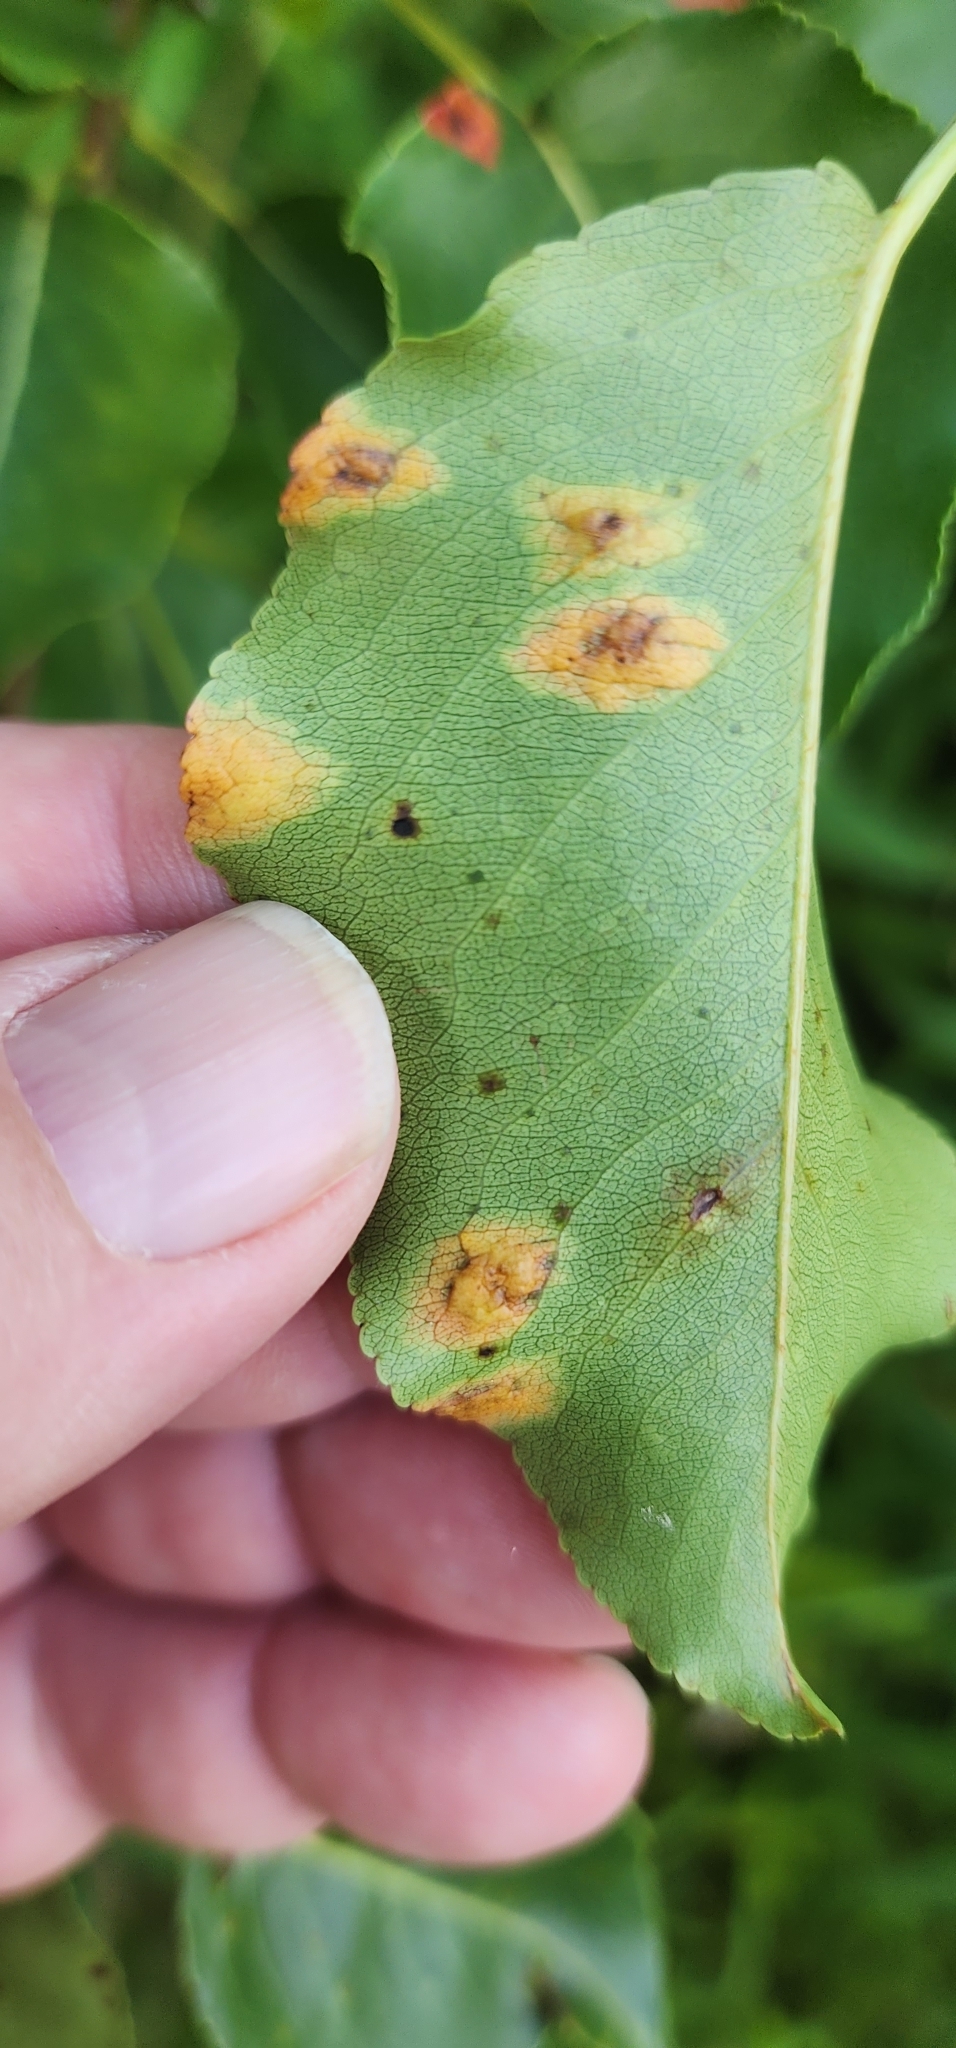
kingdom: Fungi
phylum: Basidiomycota
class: Pucciniomycetes
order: Pucciniales
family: Gymnosporangiaceae
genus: Gymnosporangium
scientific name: Gymnosporangium sabinae
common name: Pear trellis rust fungus
